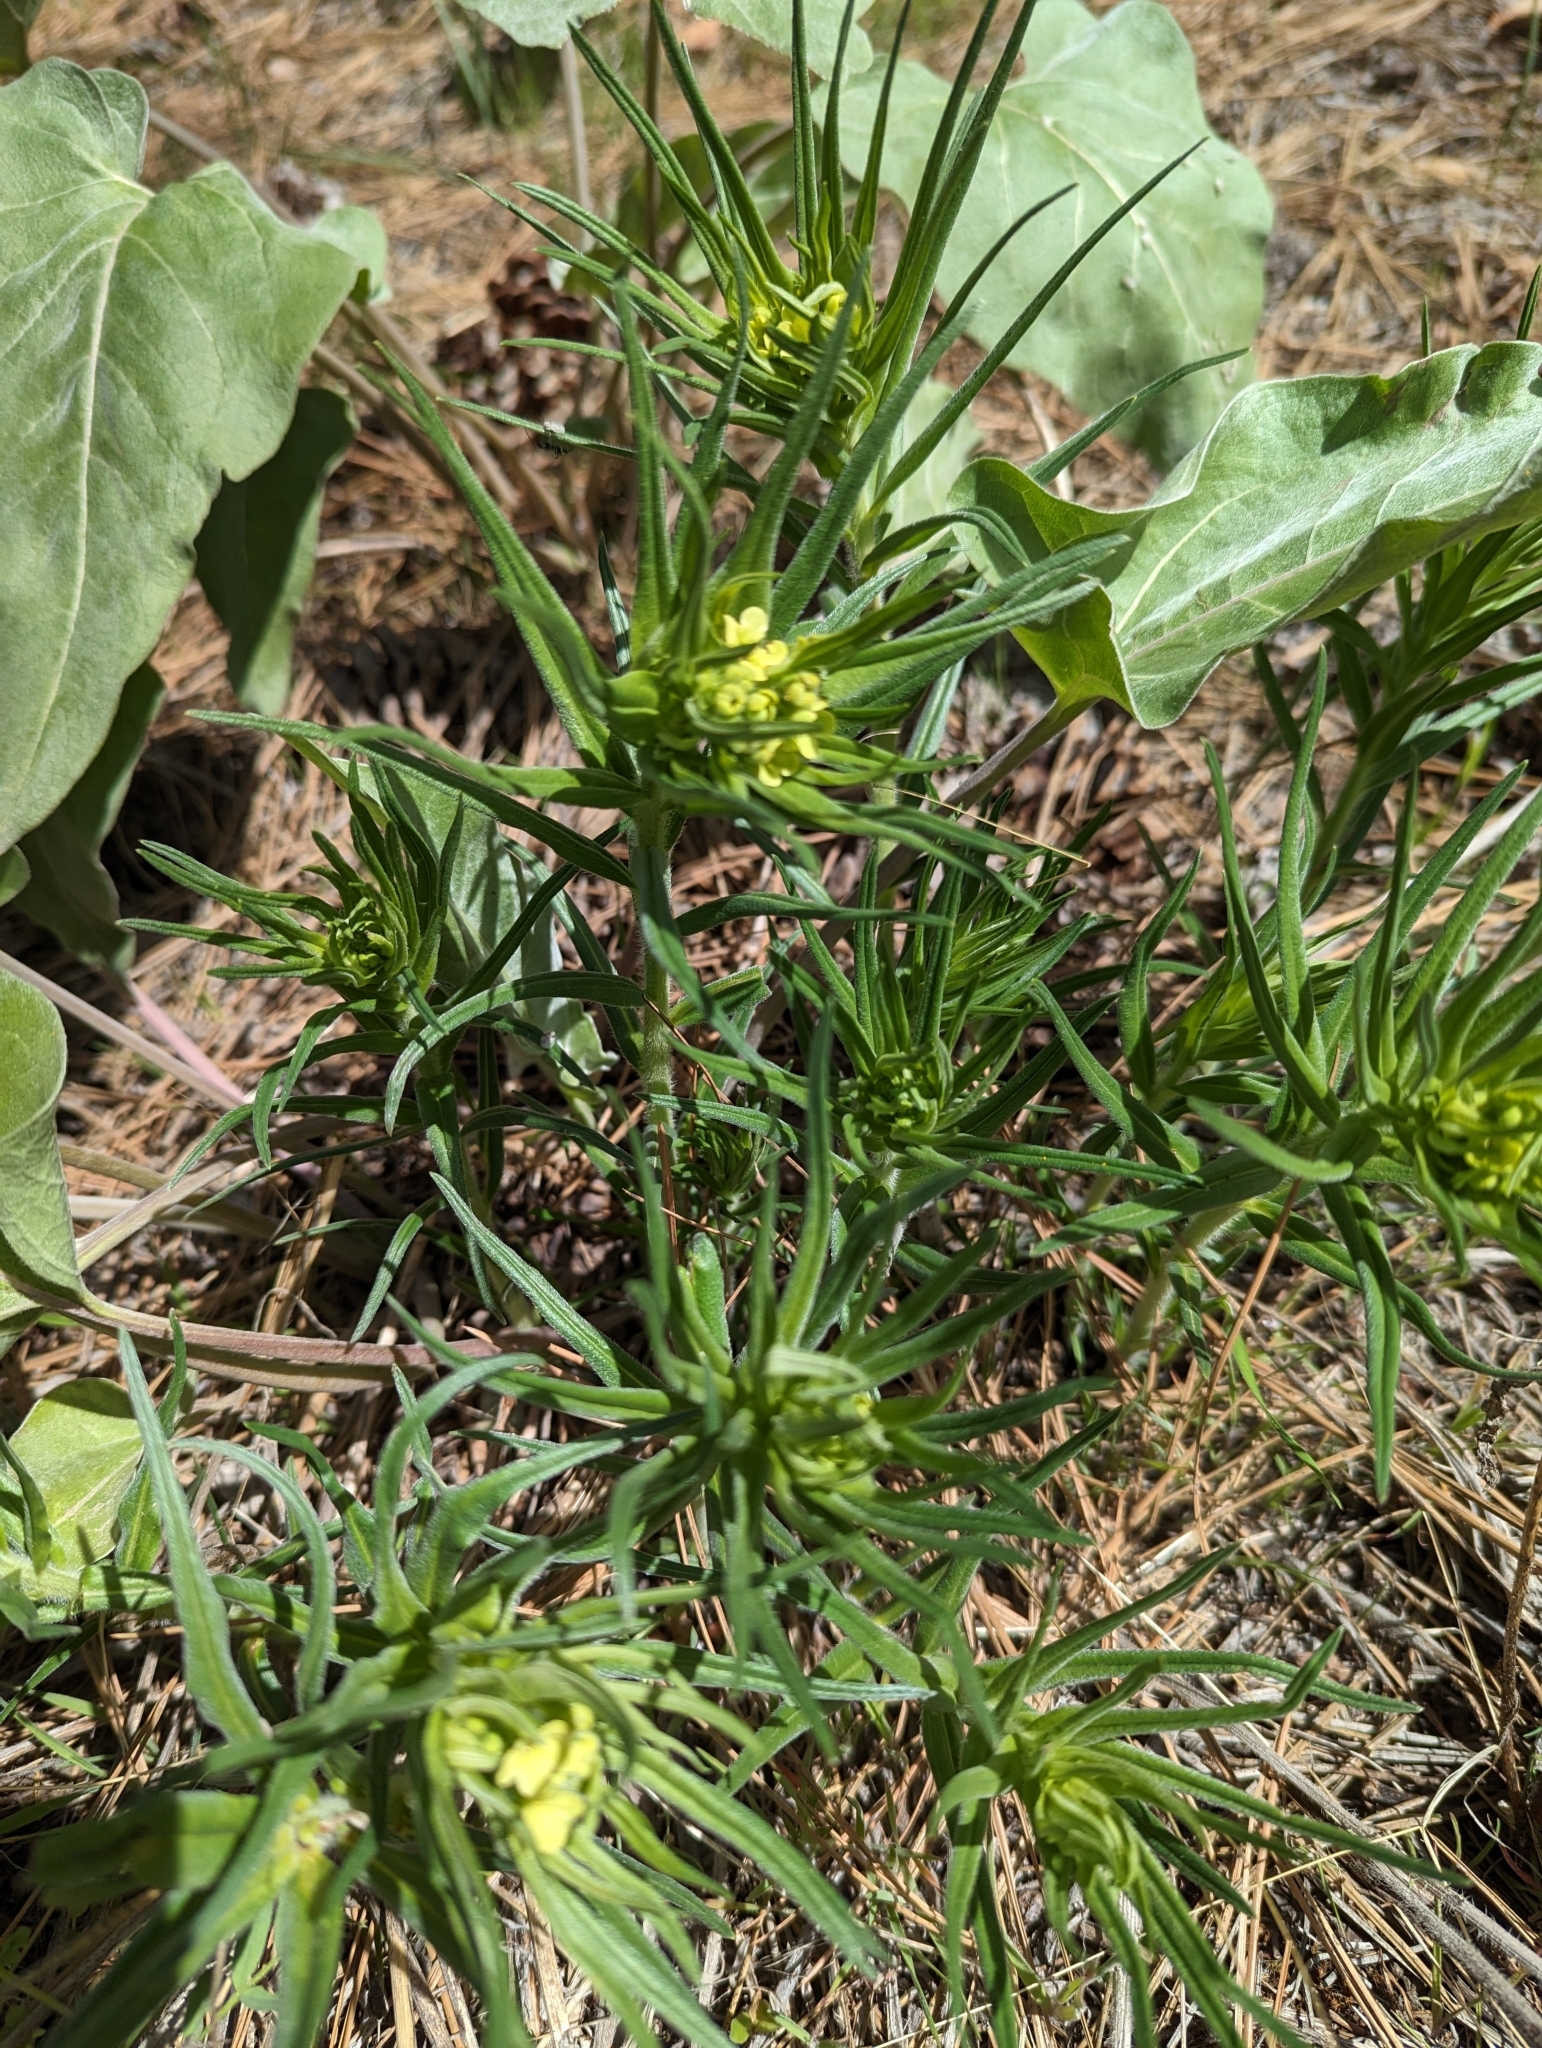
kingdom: Plantae
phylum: Tracheophyta
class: Magnoliopsida
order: Boraginales
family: Boraginaceae
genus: Lithospermum
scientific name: Lithospermum ruderale
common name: Western gromwell
